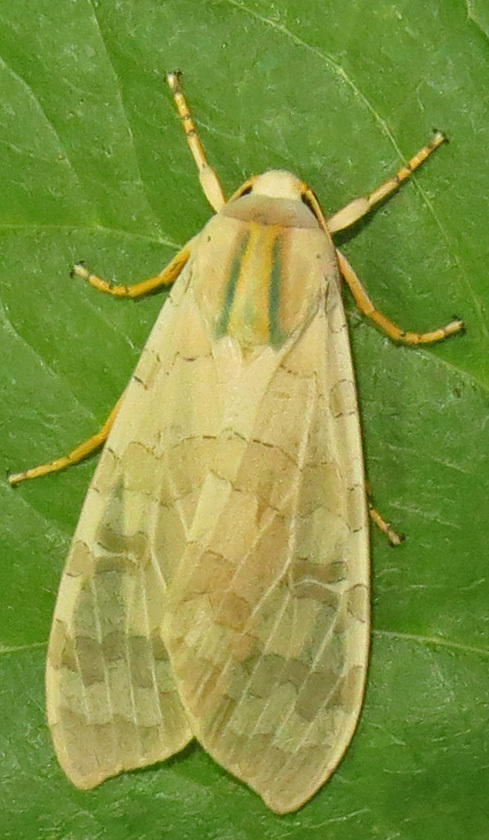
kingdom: Animalia
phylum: Arthropoda
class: Insecta
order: Lepidoptera
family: Erebidae
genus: Halysidota
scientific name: Halysidota
